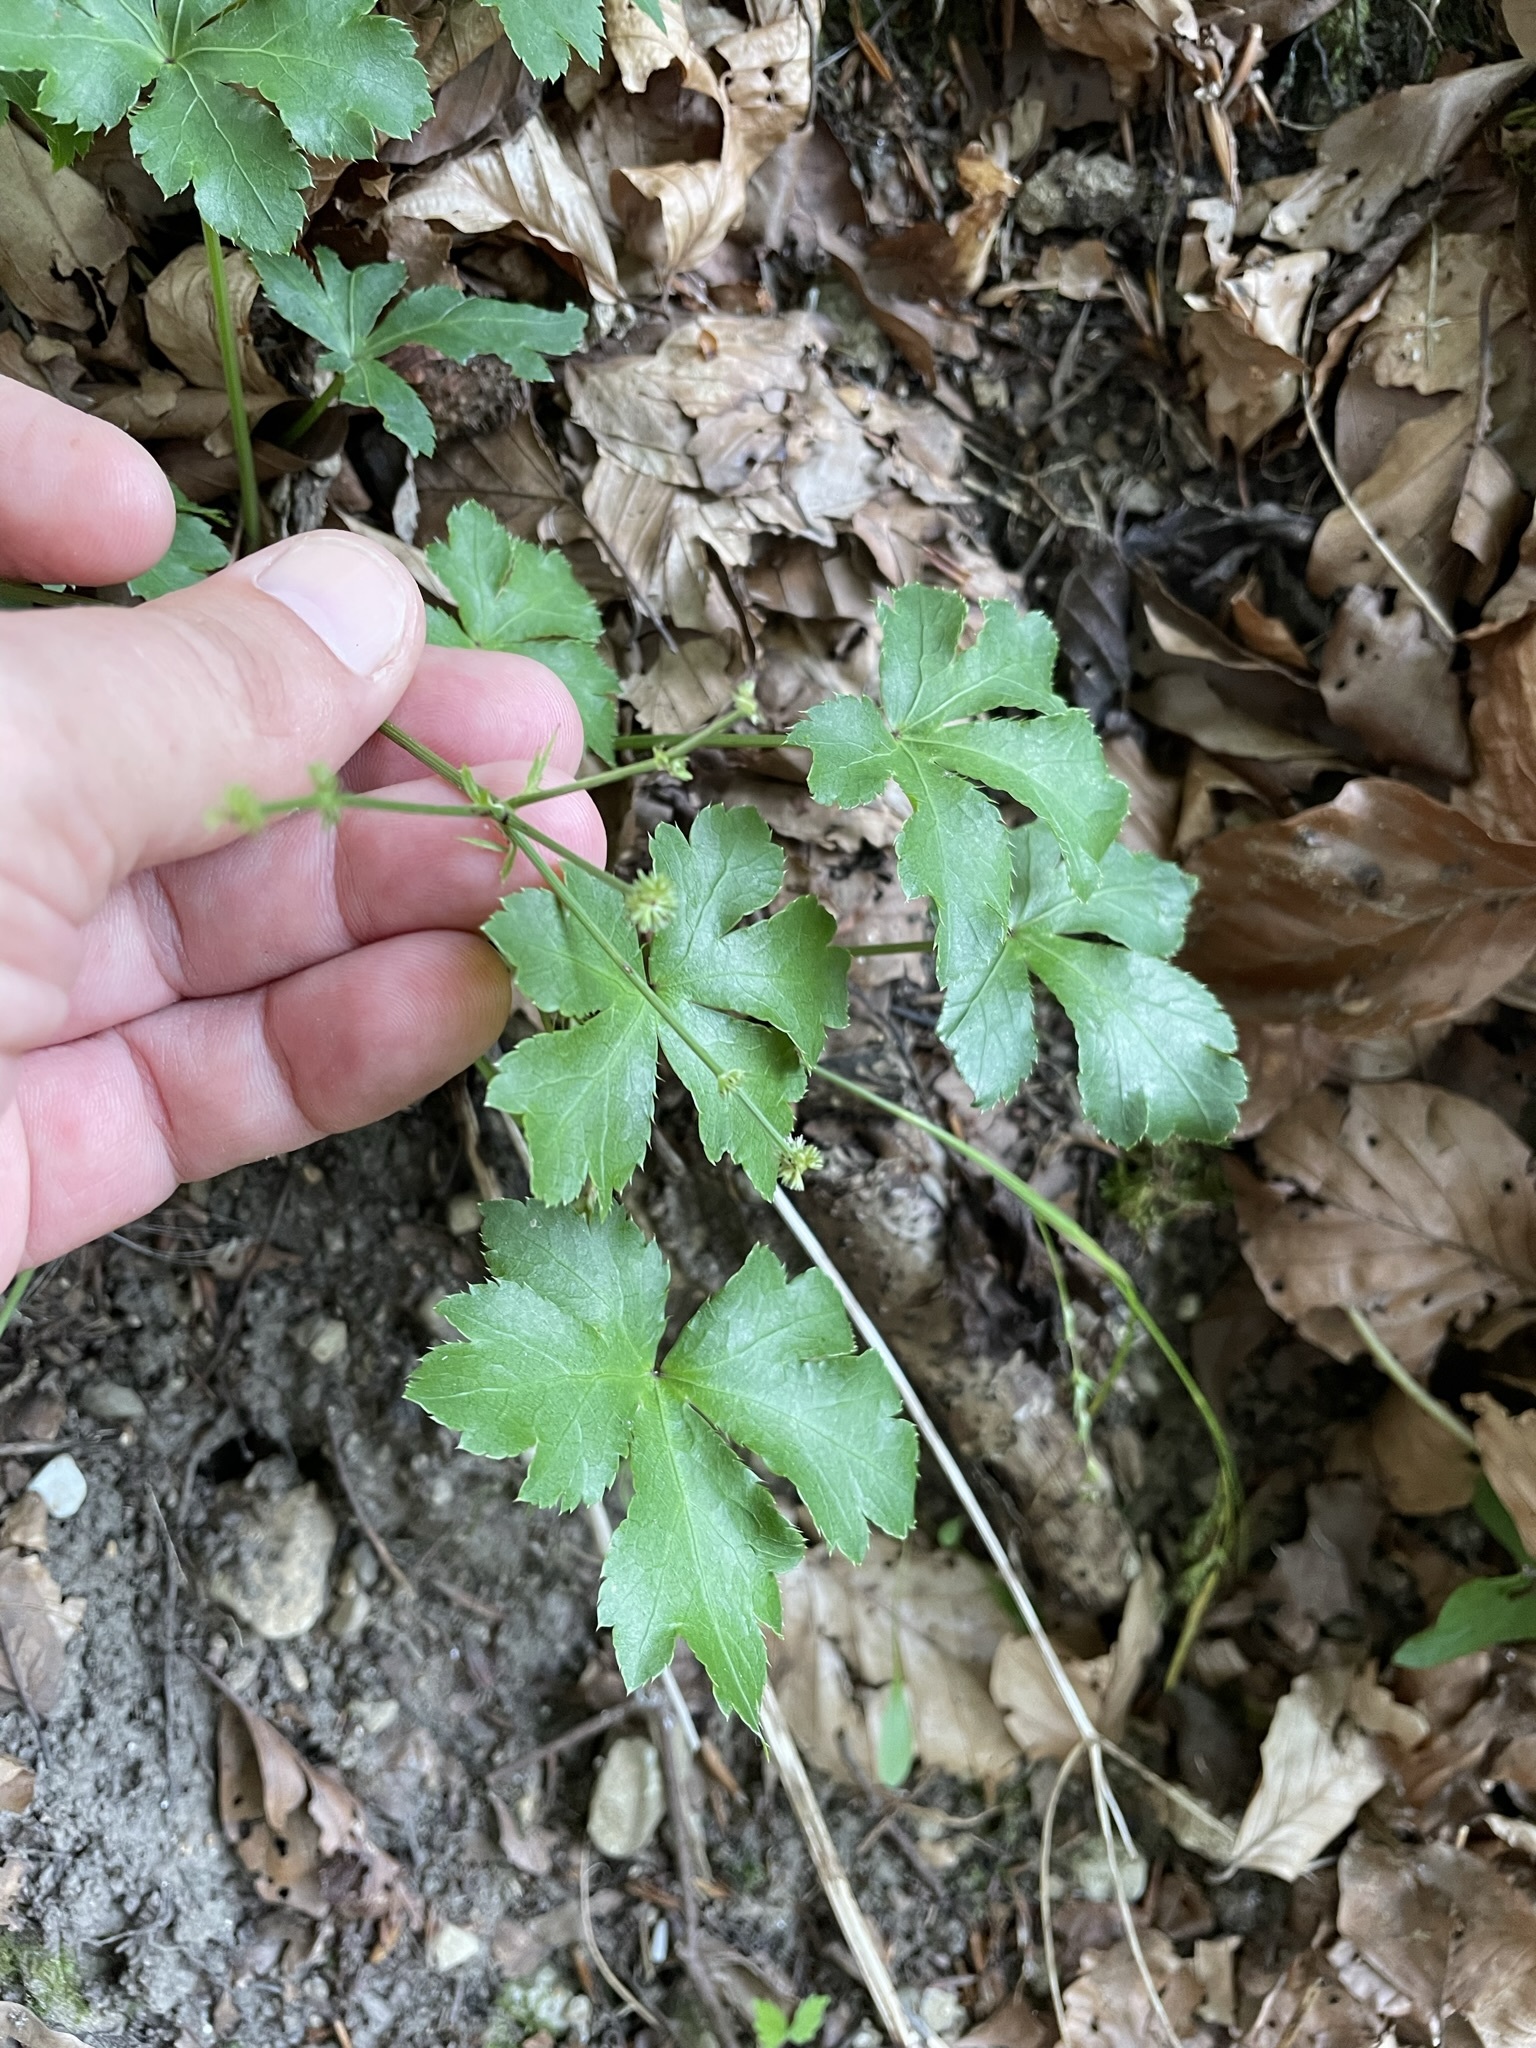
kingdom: Plantae
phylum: Tracheophyta
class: Magnoliopsida
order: Apiales
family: Apiaceae
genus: Sanicula
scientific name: Sanicula europaea
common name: Sanicle
